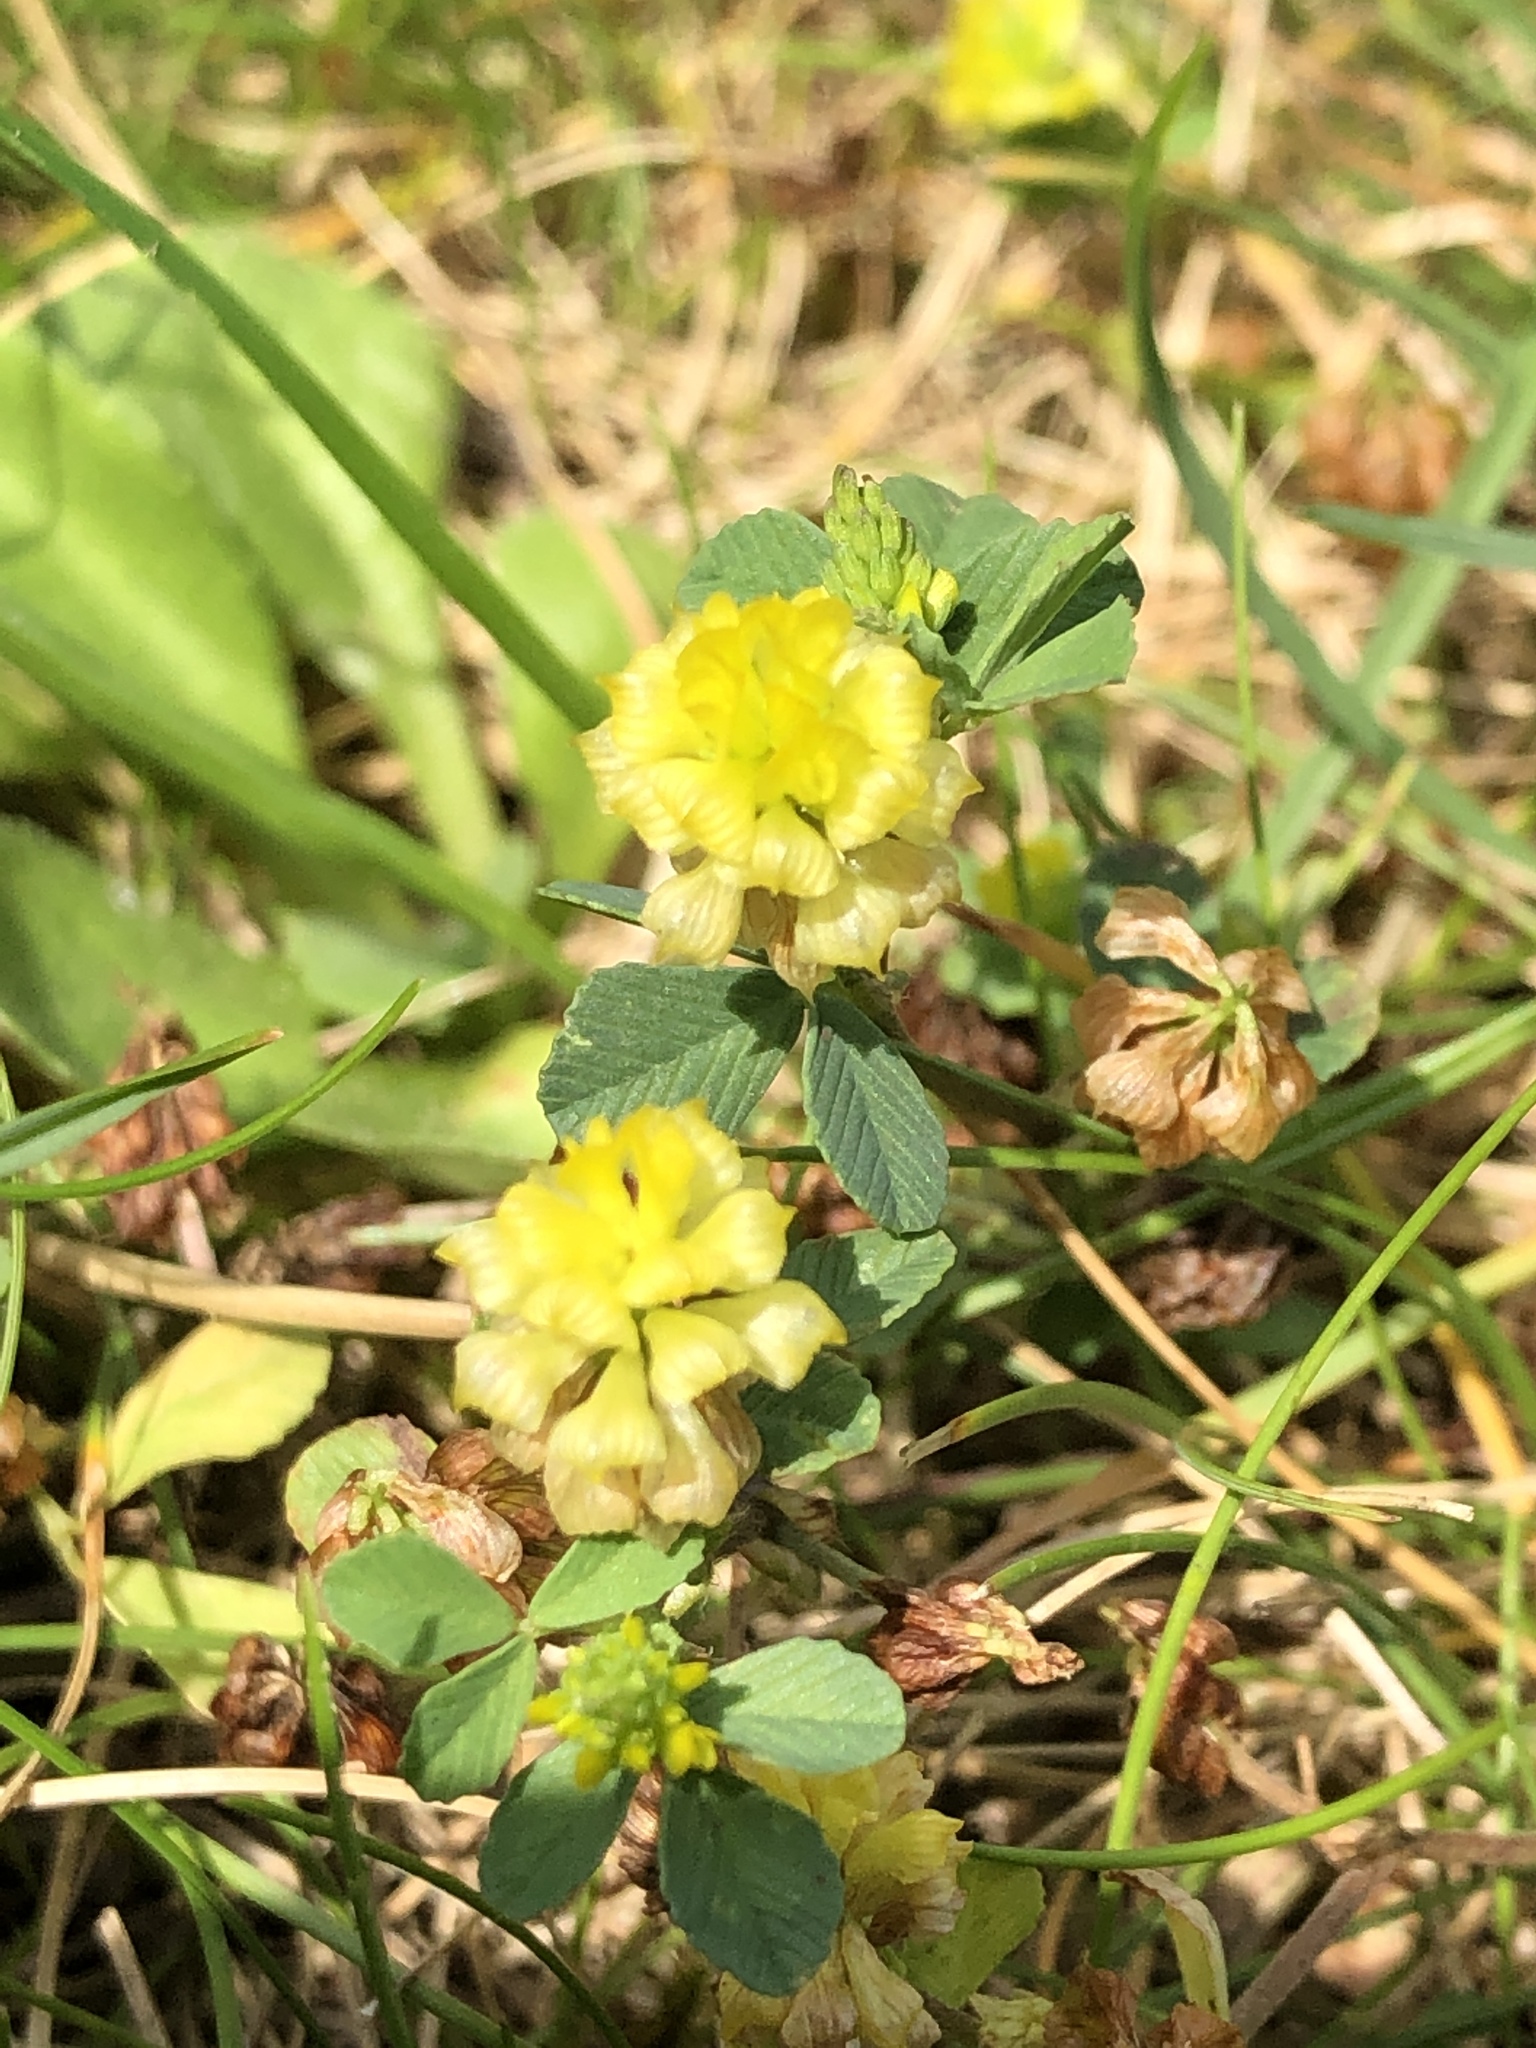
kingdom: Plantae
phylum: Tracheophyta
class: Magnoliopsida
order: Fabales
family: Fabaceae
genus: Trifolium
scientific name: Trifolium campestre
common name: Field clover
